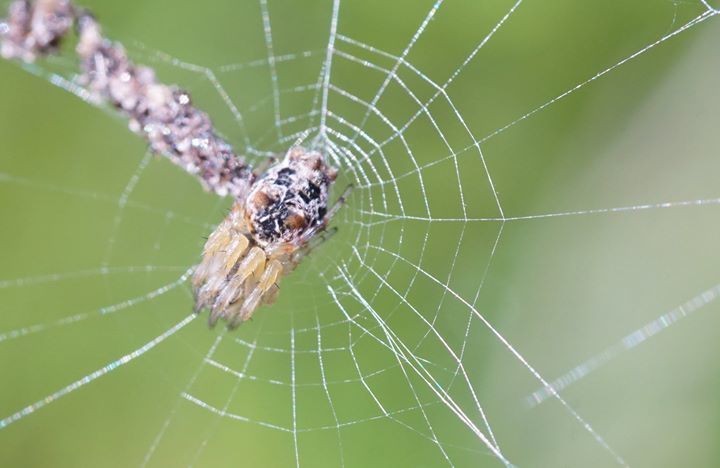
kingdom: Animalia
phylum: Arthropoda
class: Arachnida
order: Araneae
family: Araneidae
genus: Cyclosa
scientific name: Cyclosa walckenaeri
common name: Orb weavers
